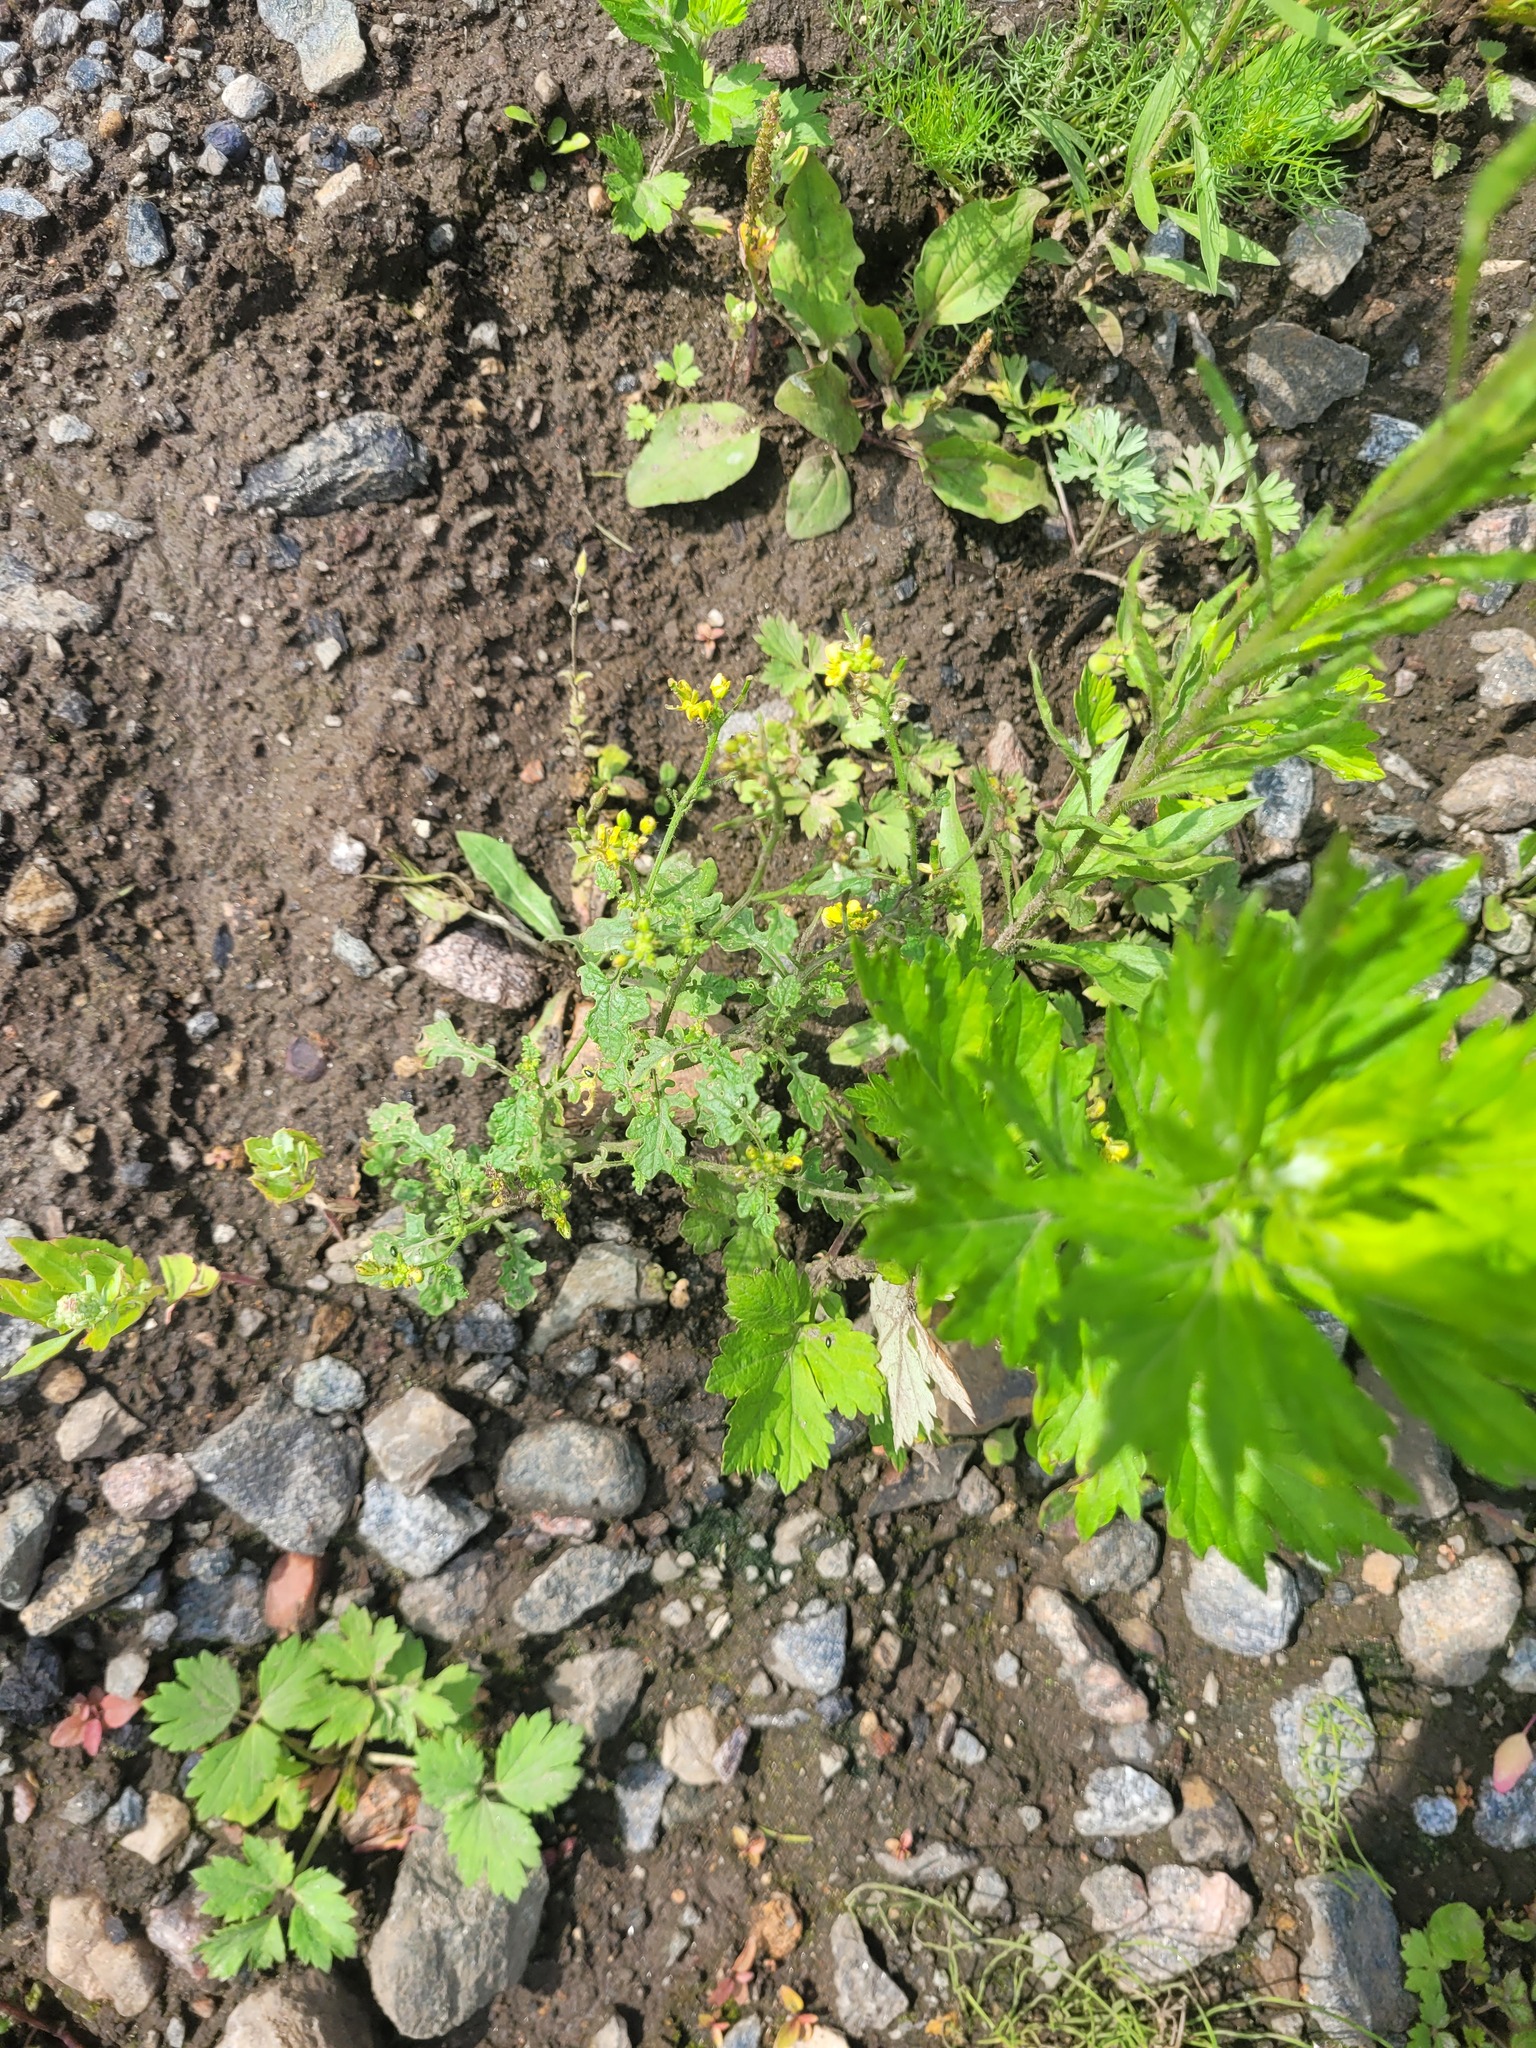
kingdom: Plantae
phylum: Tracheophyta
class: Magnoliopsida
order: Brassicales
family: Brassicaceae
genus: Sinapis
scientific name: Sinapis alba
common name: White mustard
